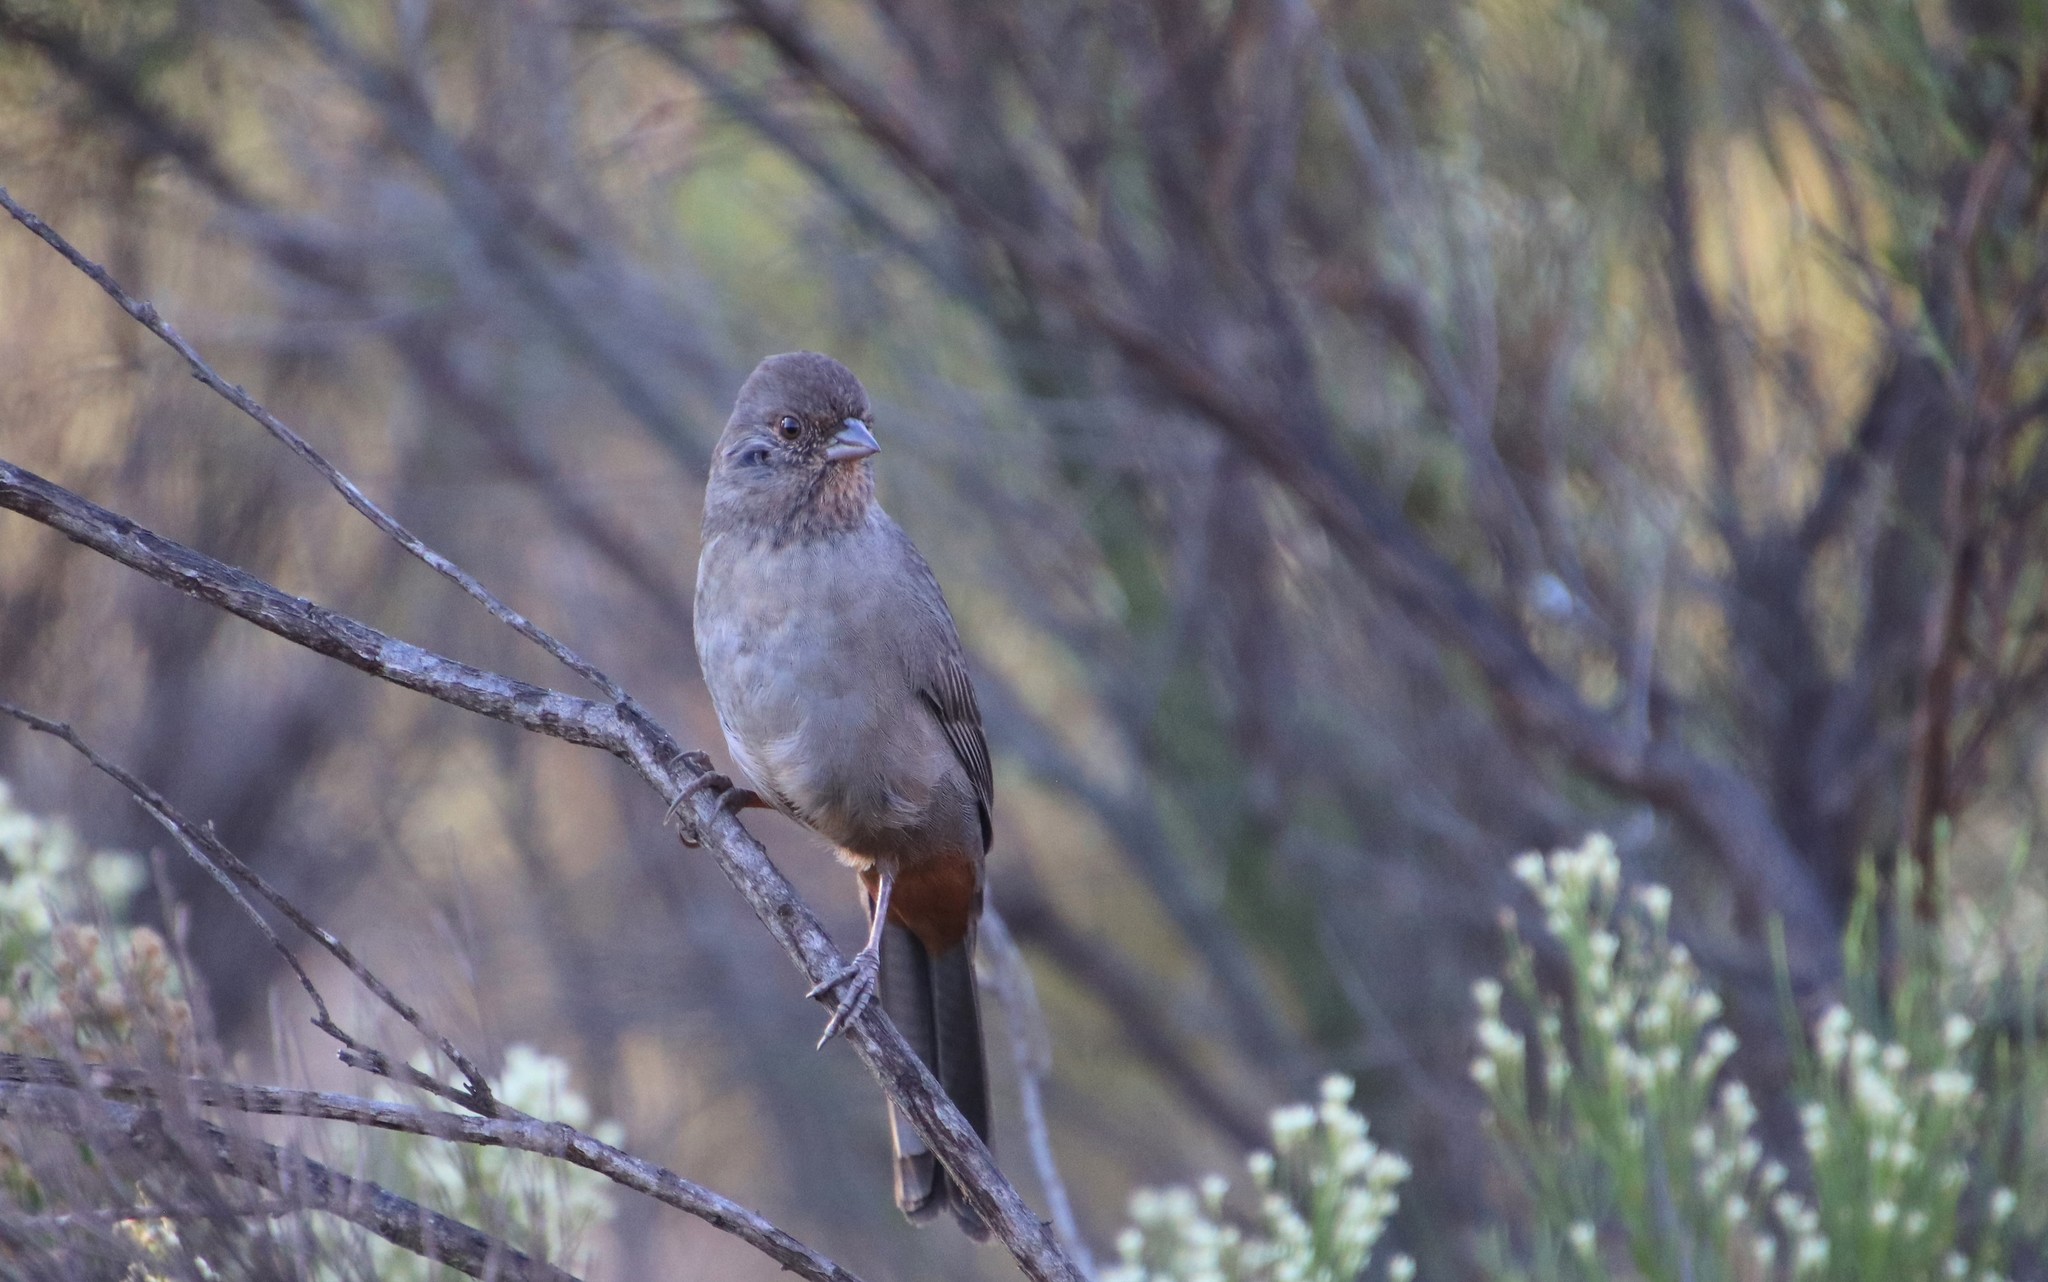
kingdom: Animalia
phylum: Chordata
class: Aves
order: Passeriformes
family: Passerellidae
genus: Melozone
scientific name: Melozone crissalis
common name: California towhee
